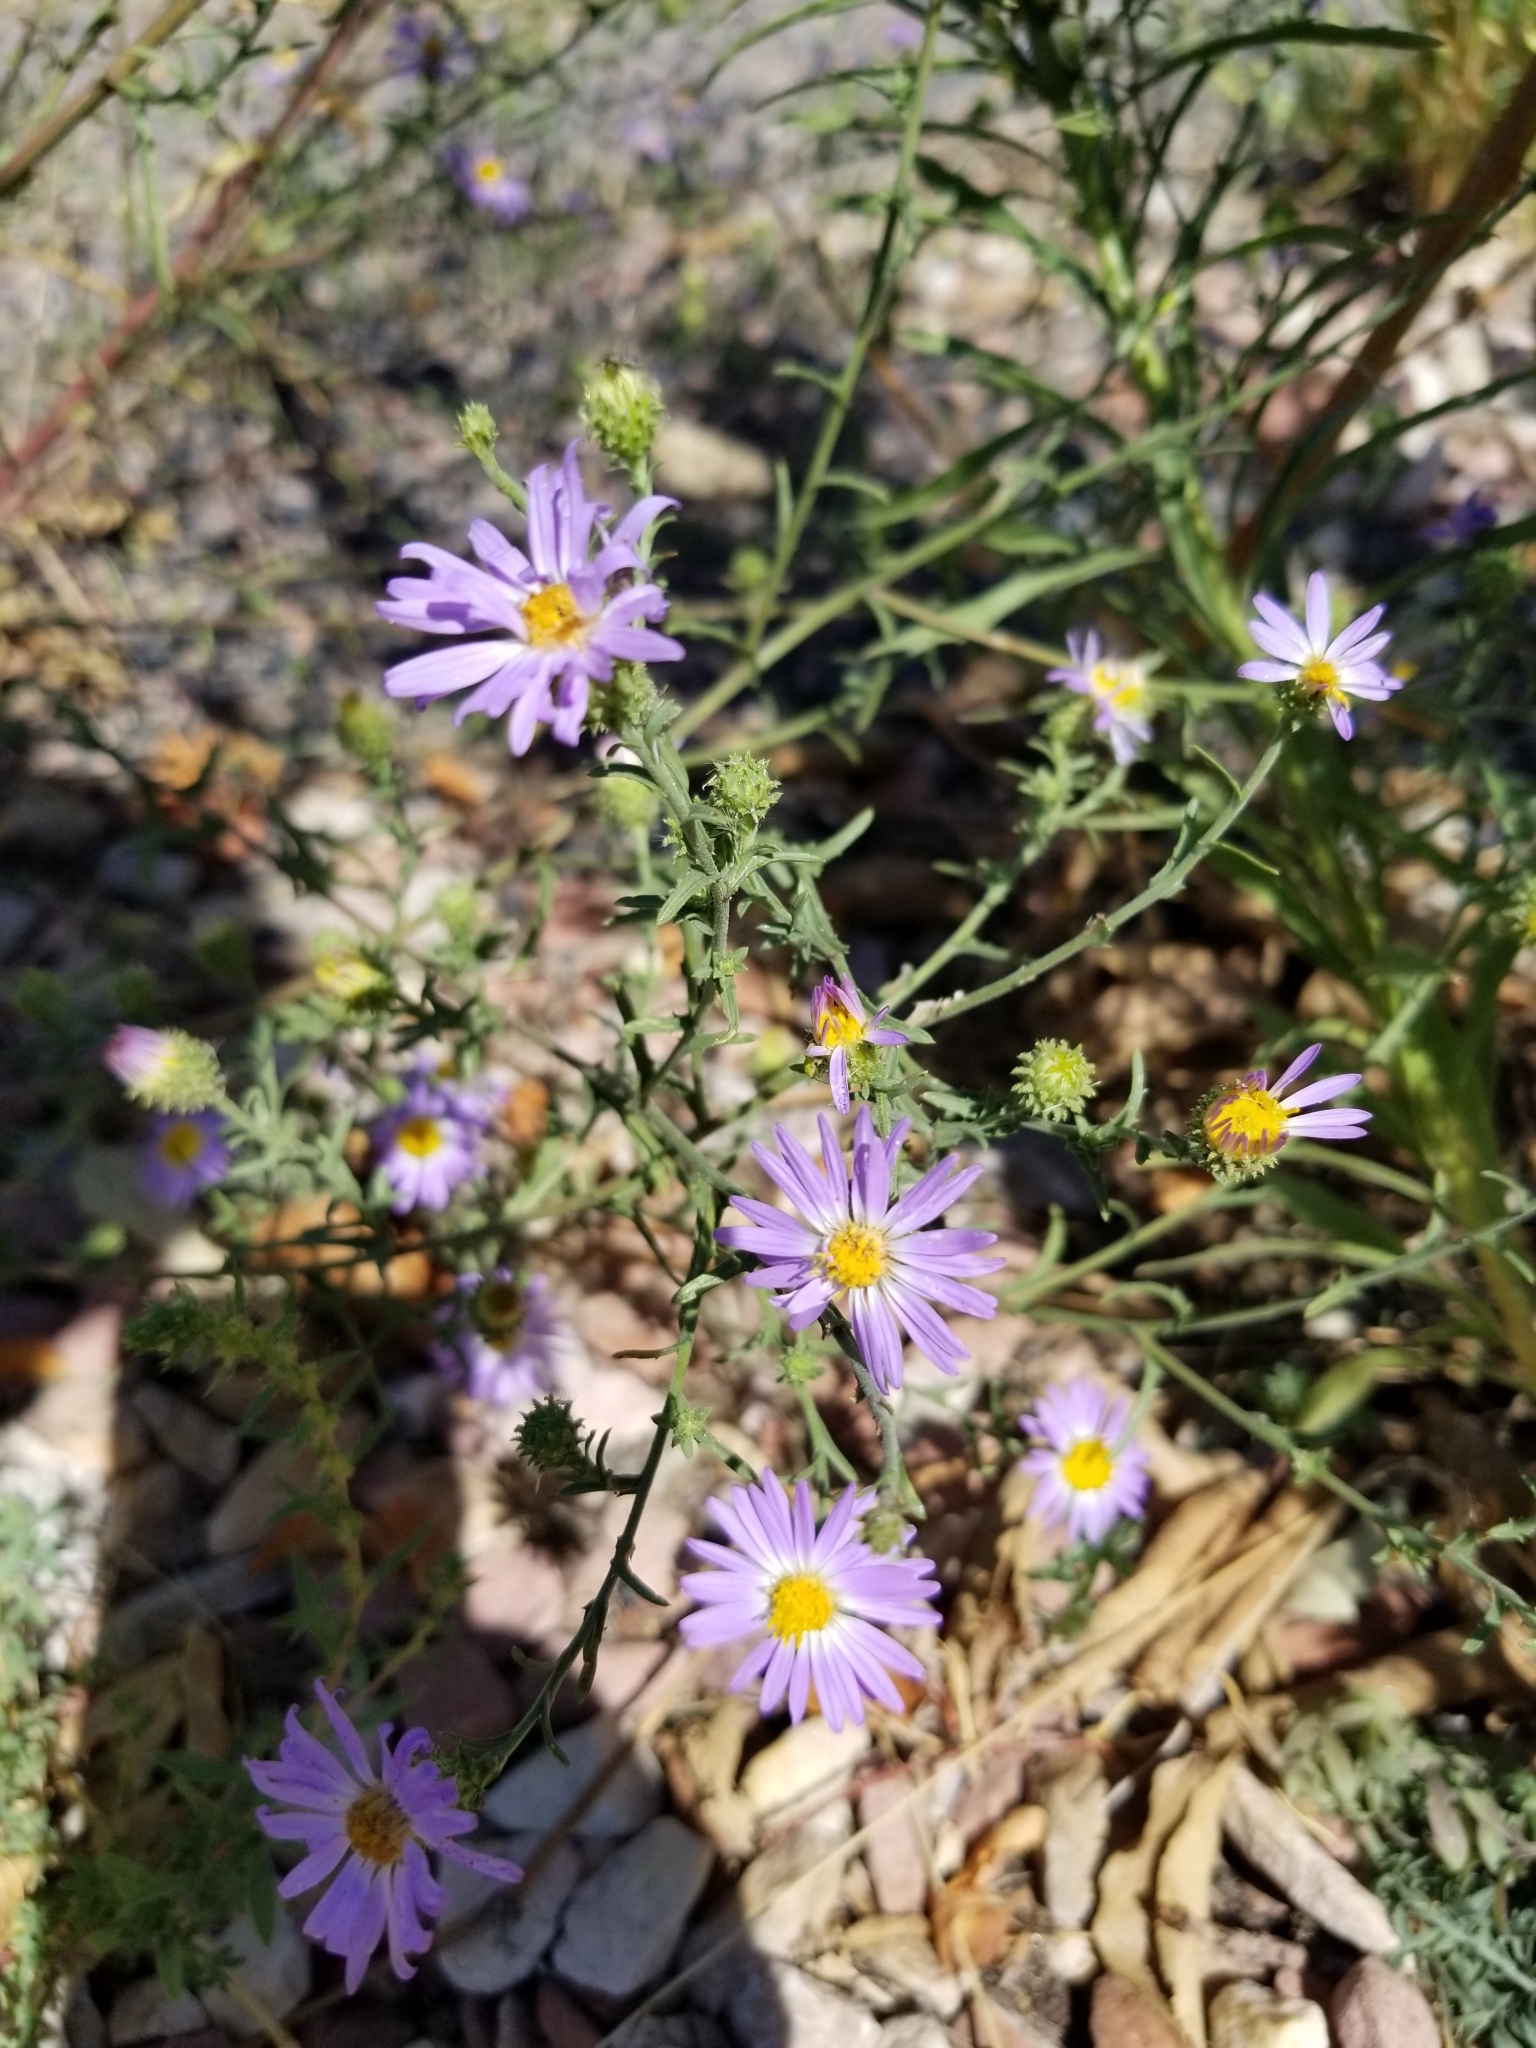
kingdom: Plantae
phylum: Tracheophyta
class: Magnoliopsida
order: Asterales
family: Asteraceae
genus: Symphyotrichum
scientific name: Symphyotrichum laeve
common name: Glaucous aster
